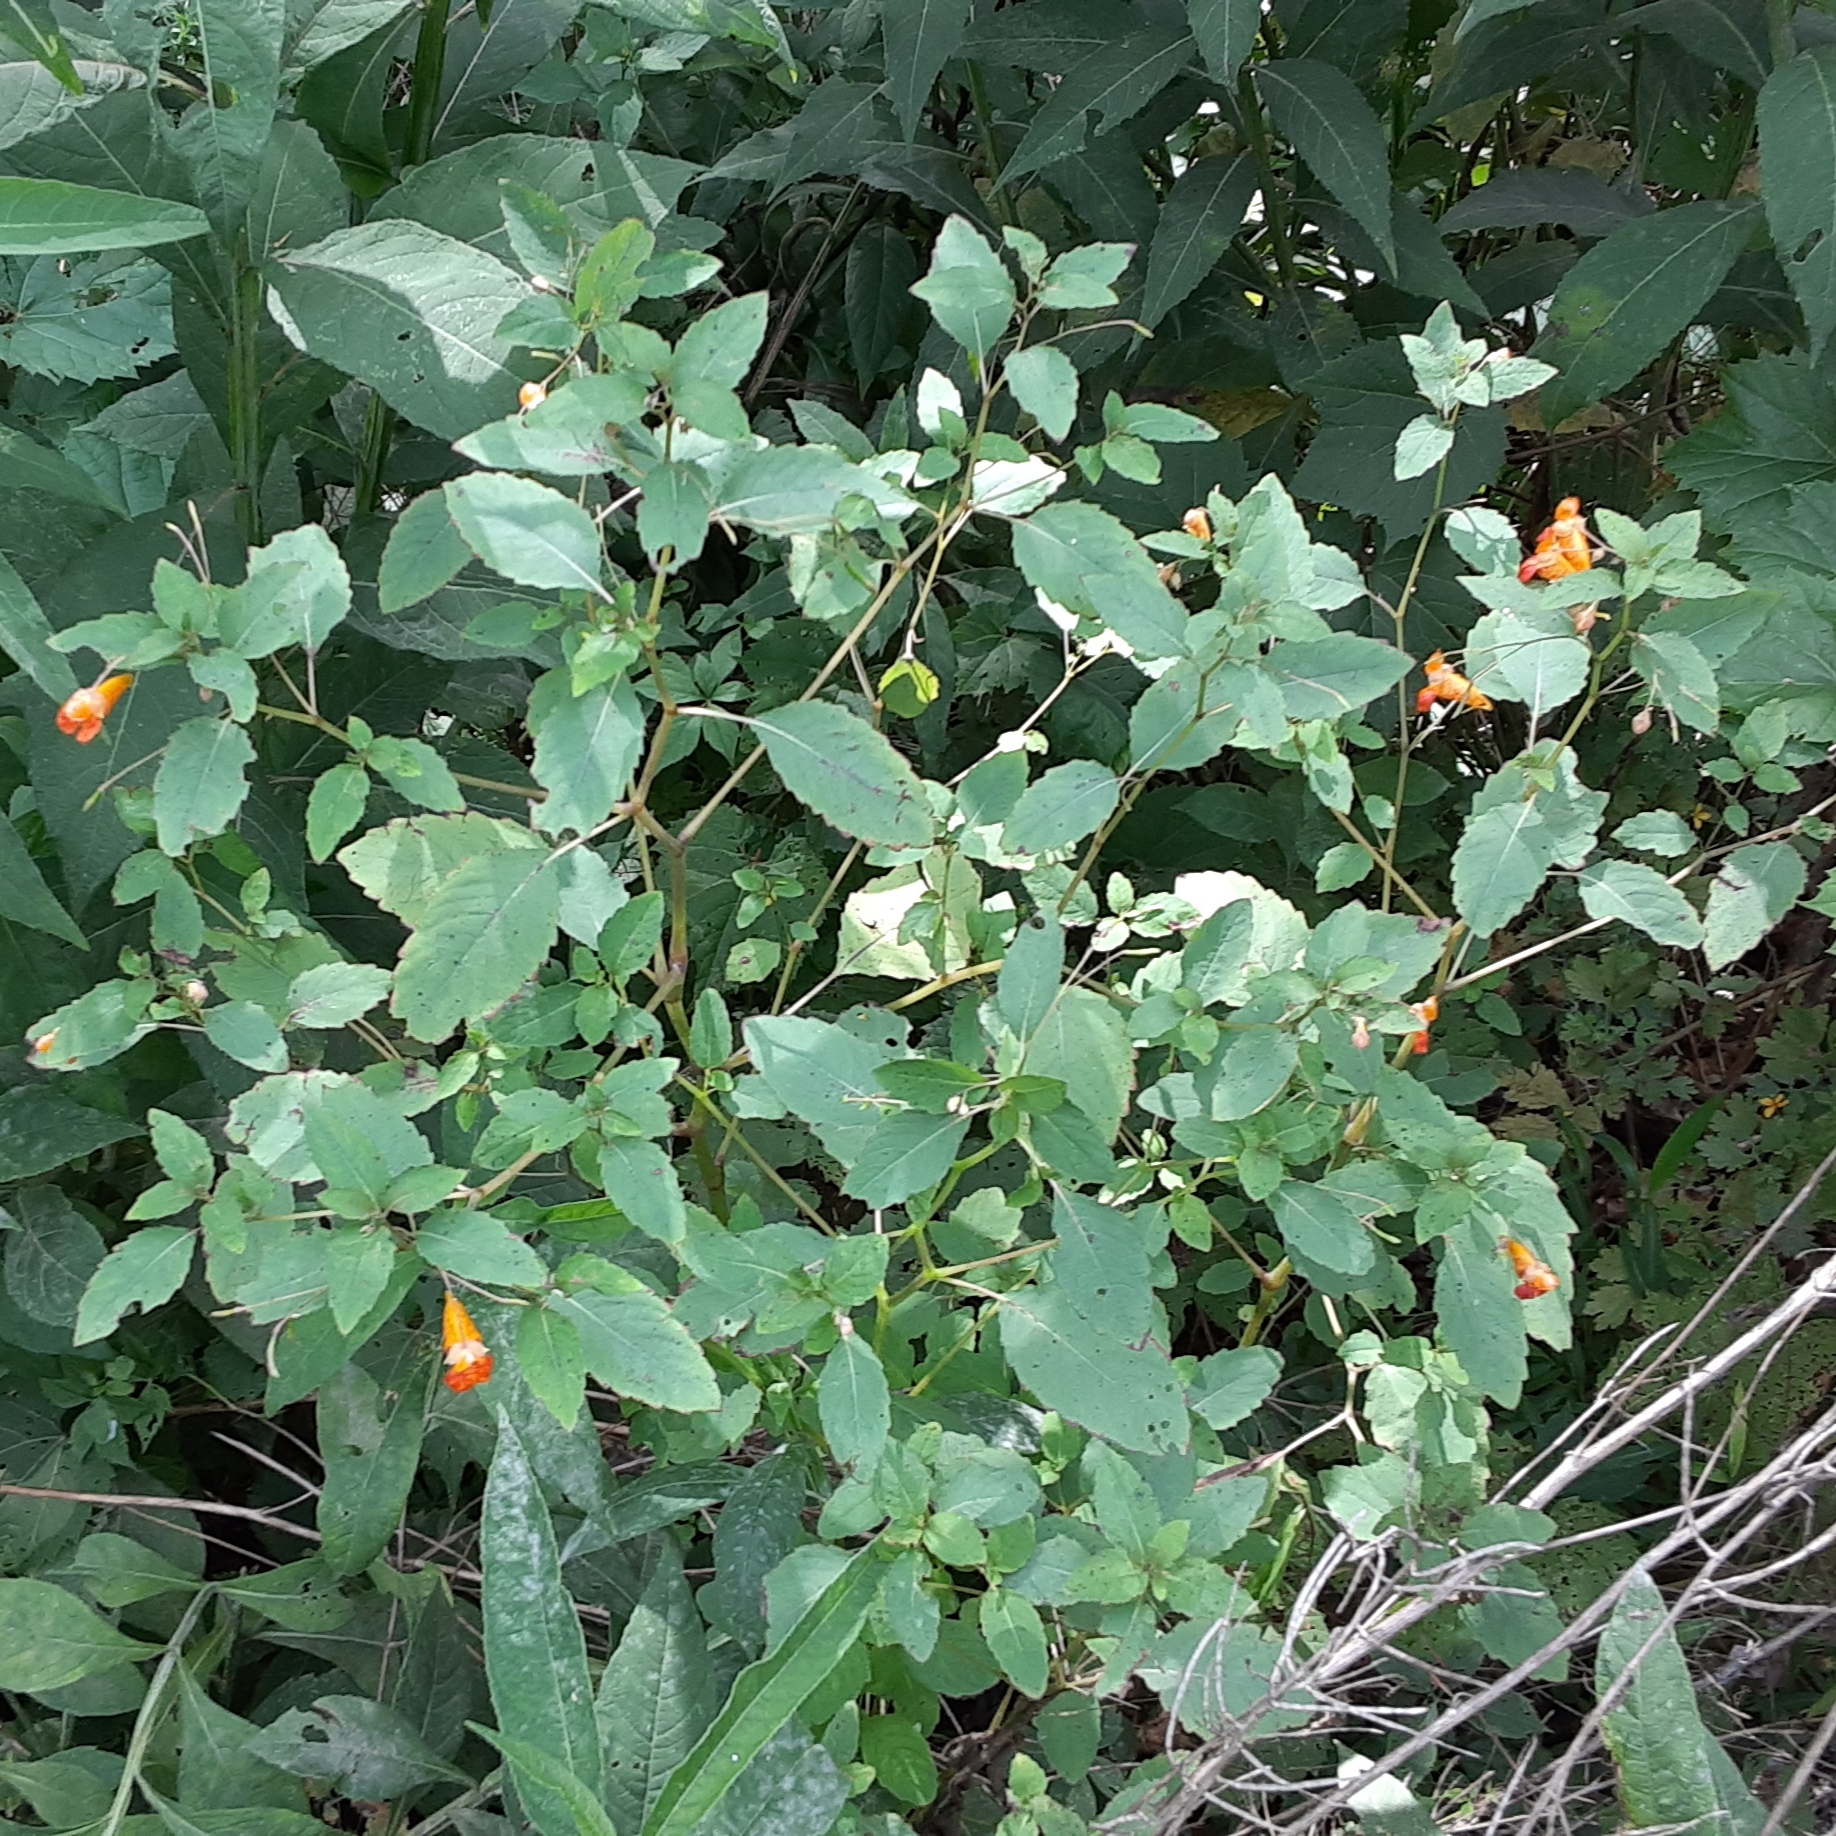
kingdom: Plantae
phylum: Tracheophyta
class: Magnoliopsida
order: Ericales
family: Balsaminaceae
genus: Impatiens
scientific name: Impatiens capensis
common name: Orange balsam
